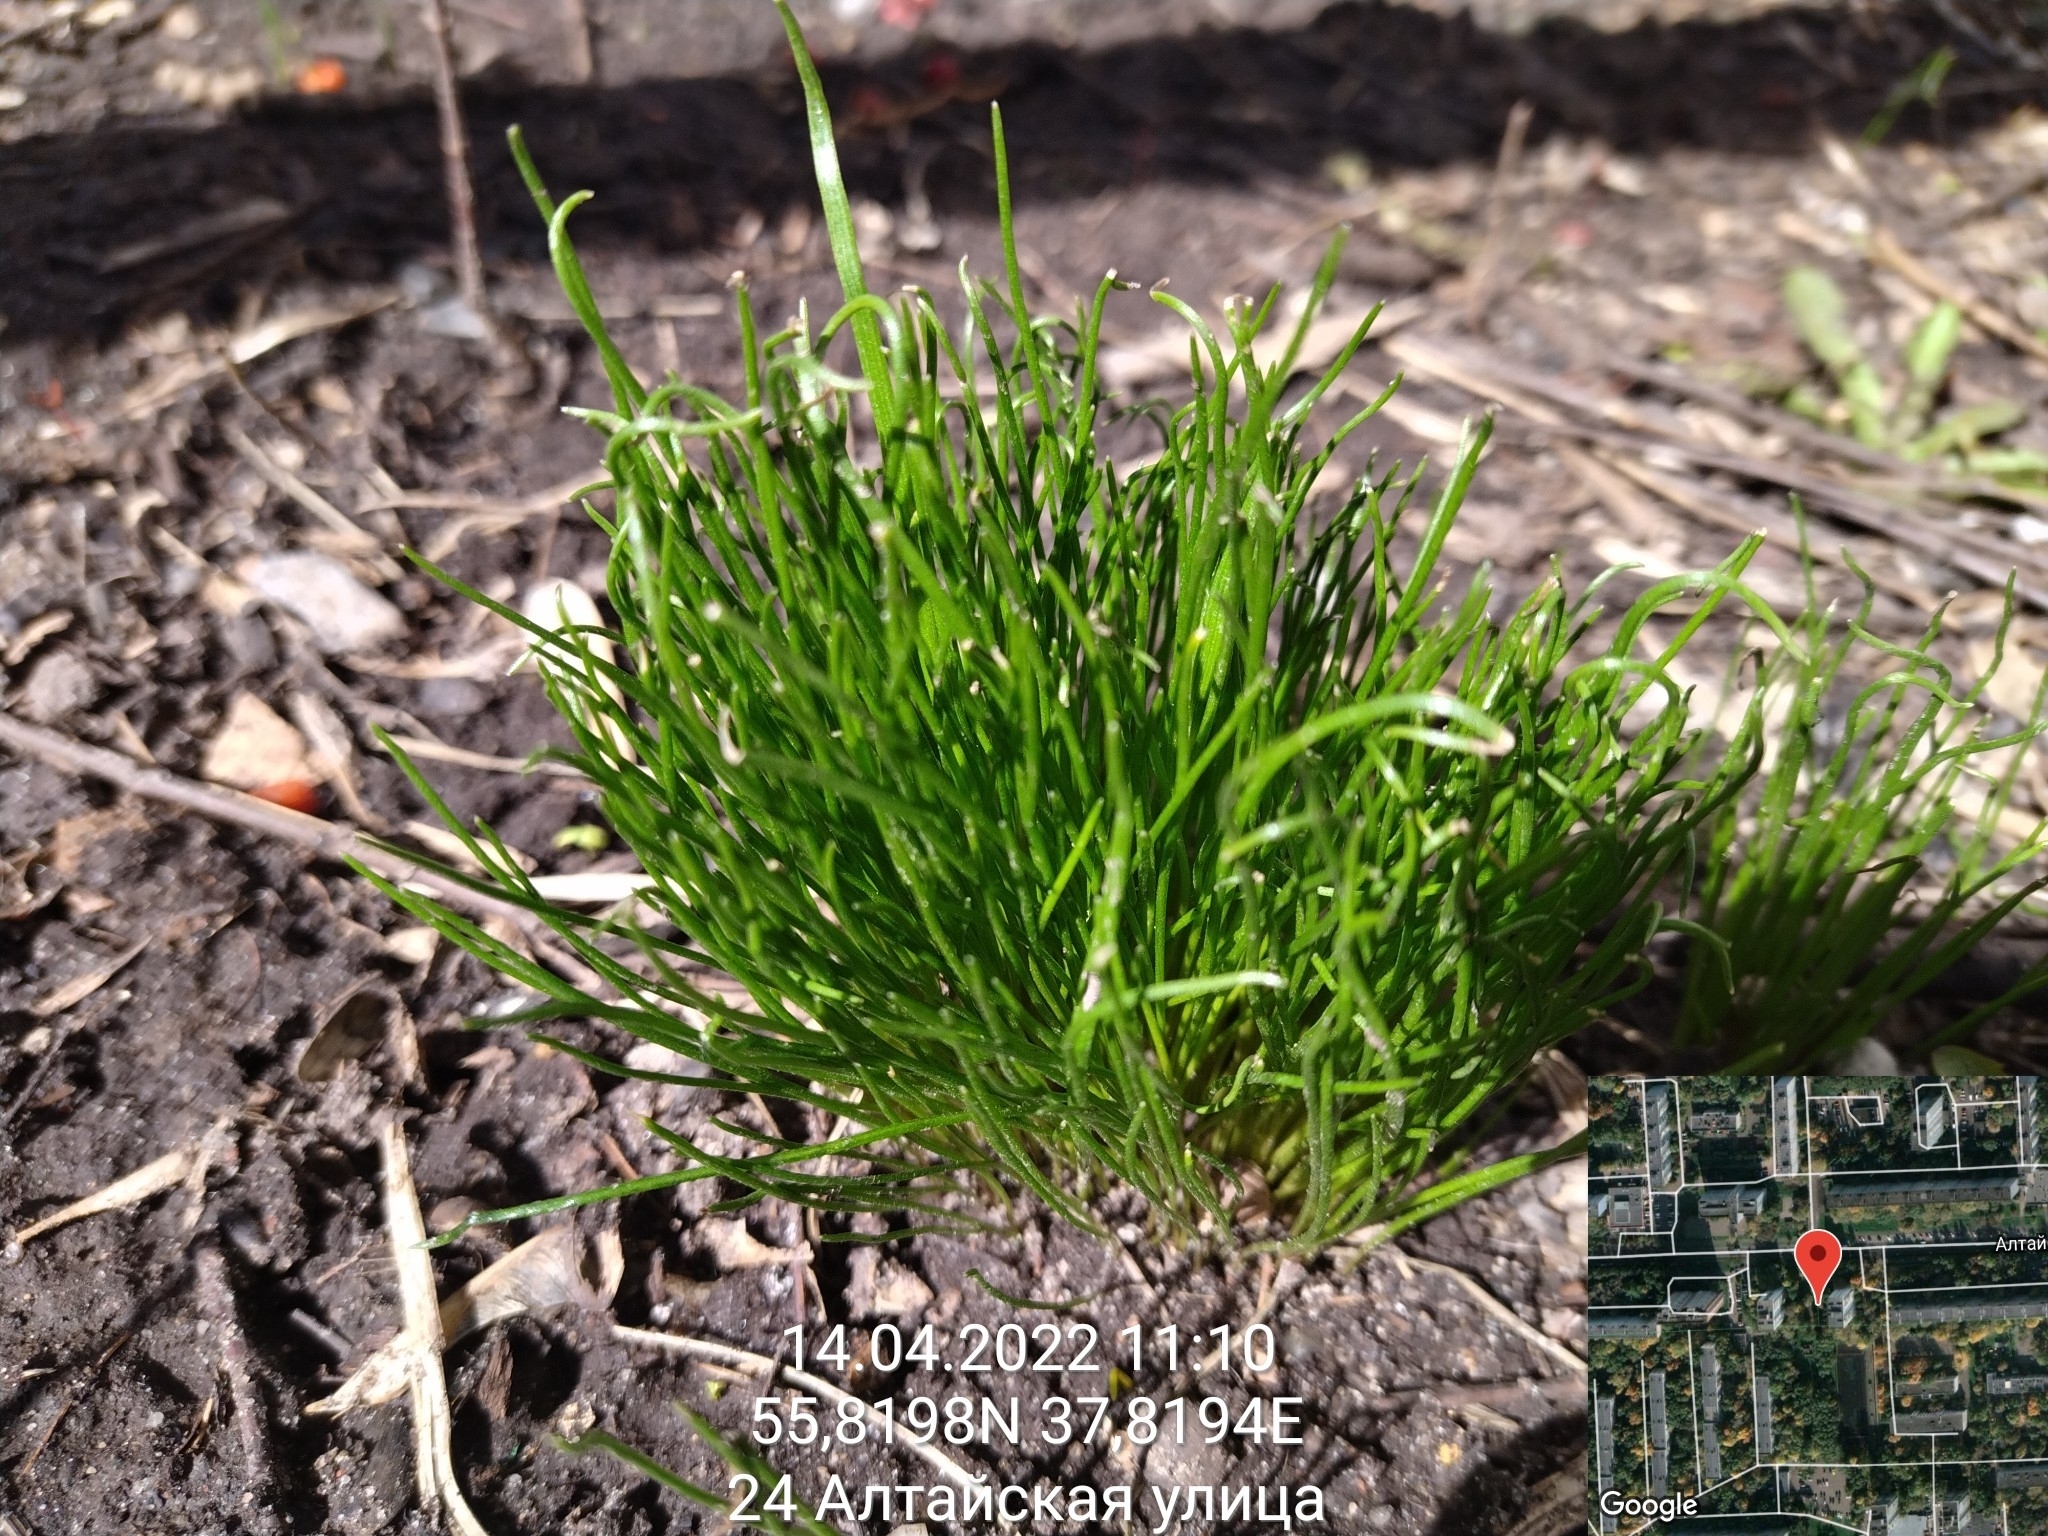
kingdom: Plantae
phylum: Tracheophyta
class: Liliopsida
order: Liliales
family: Liliaceae
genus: Gagea
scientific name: Gagea minima
